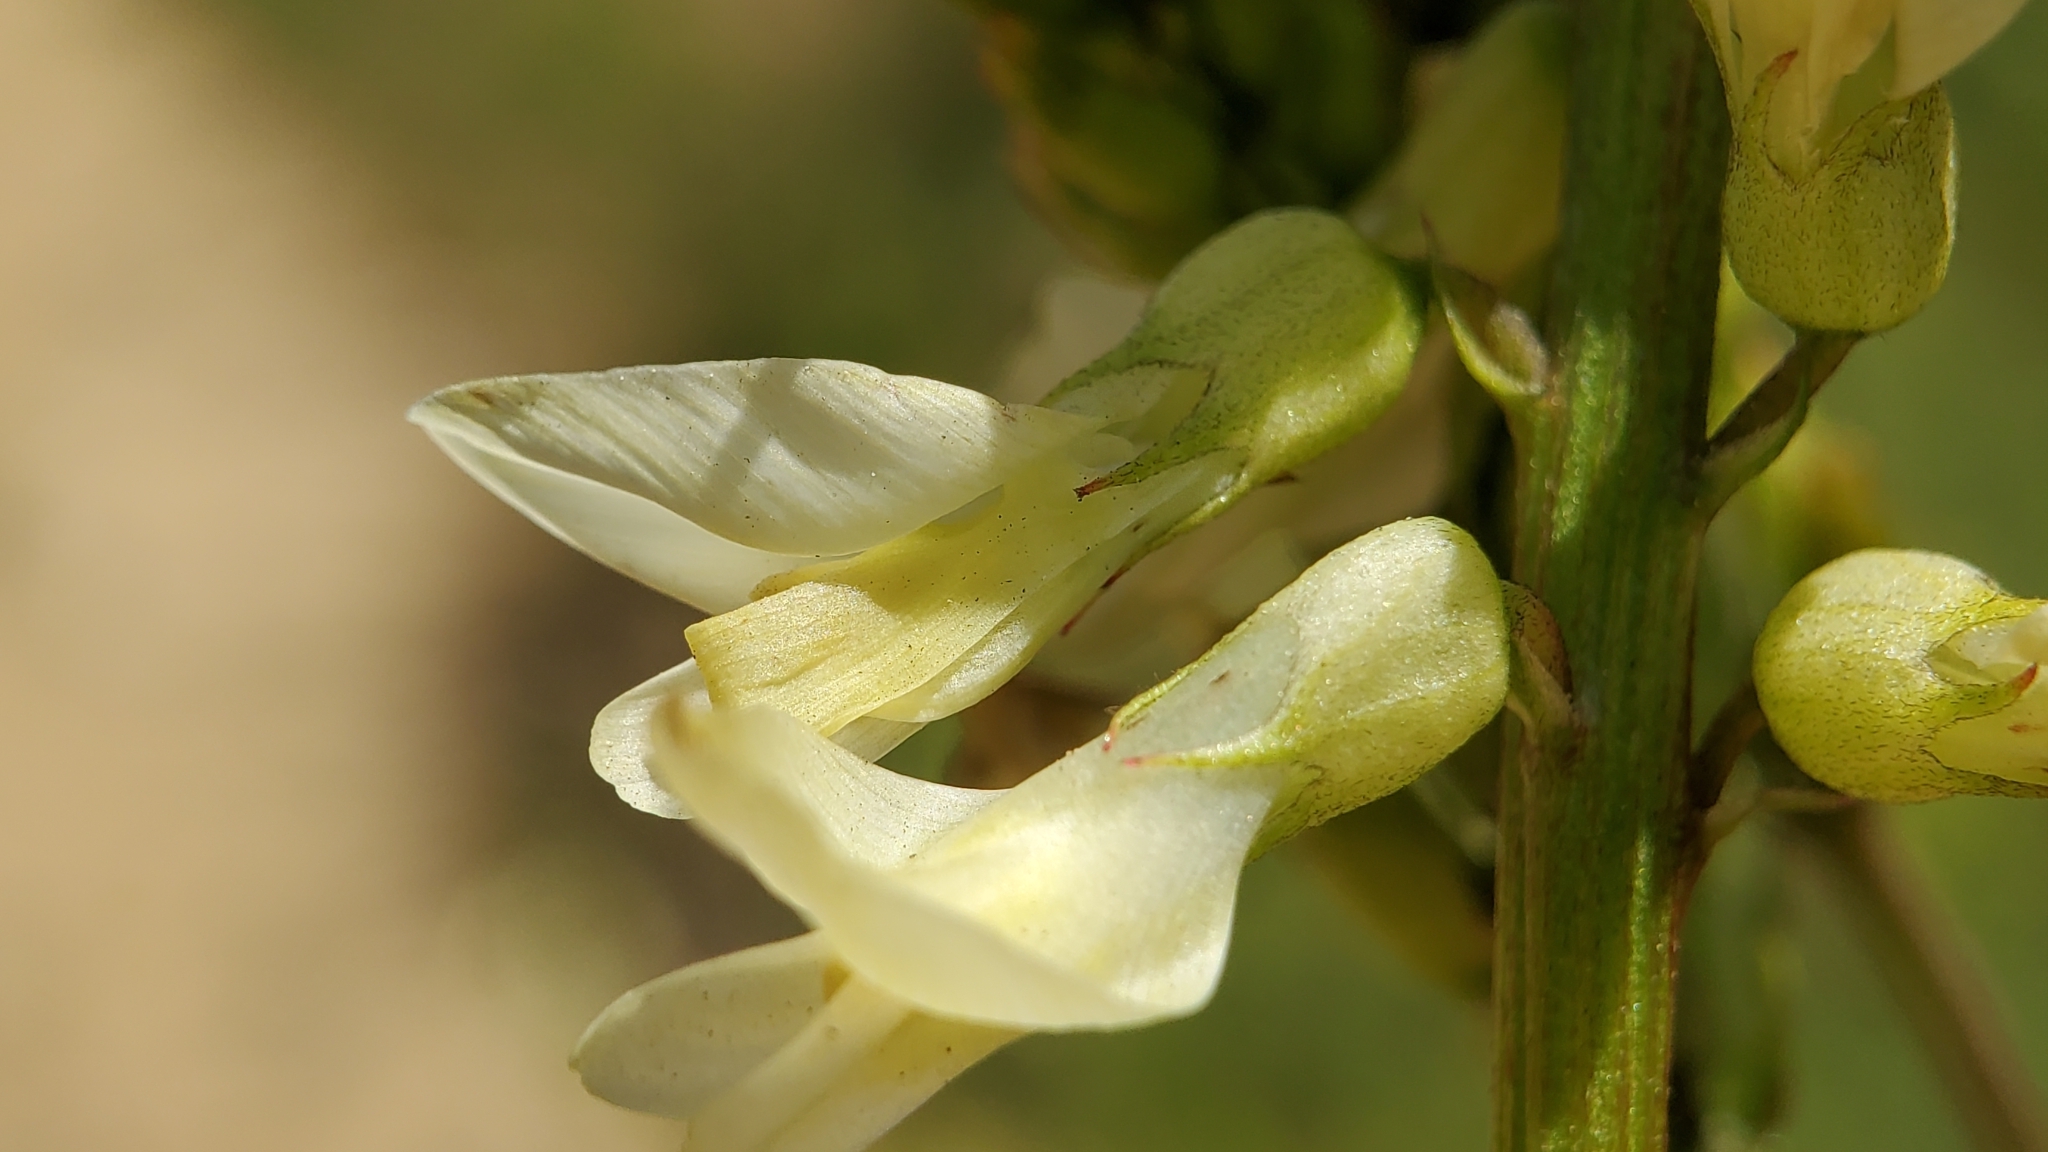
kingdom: Plantae
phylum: Tracheophyta
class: Magnoliopsida
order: Fabales
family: Fabaceae
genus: Astragalus
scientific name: Astragalus trichopodus
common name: Santa barbara milk-vetch
